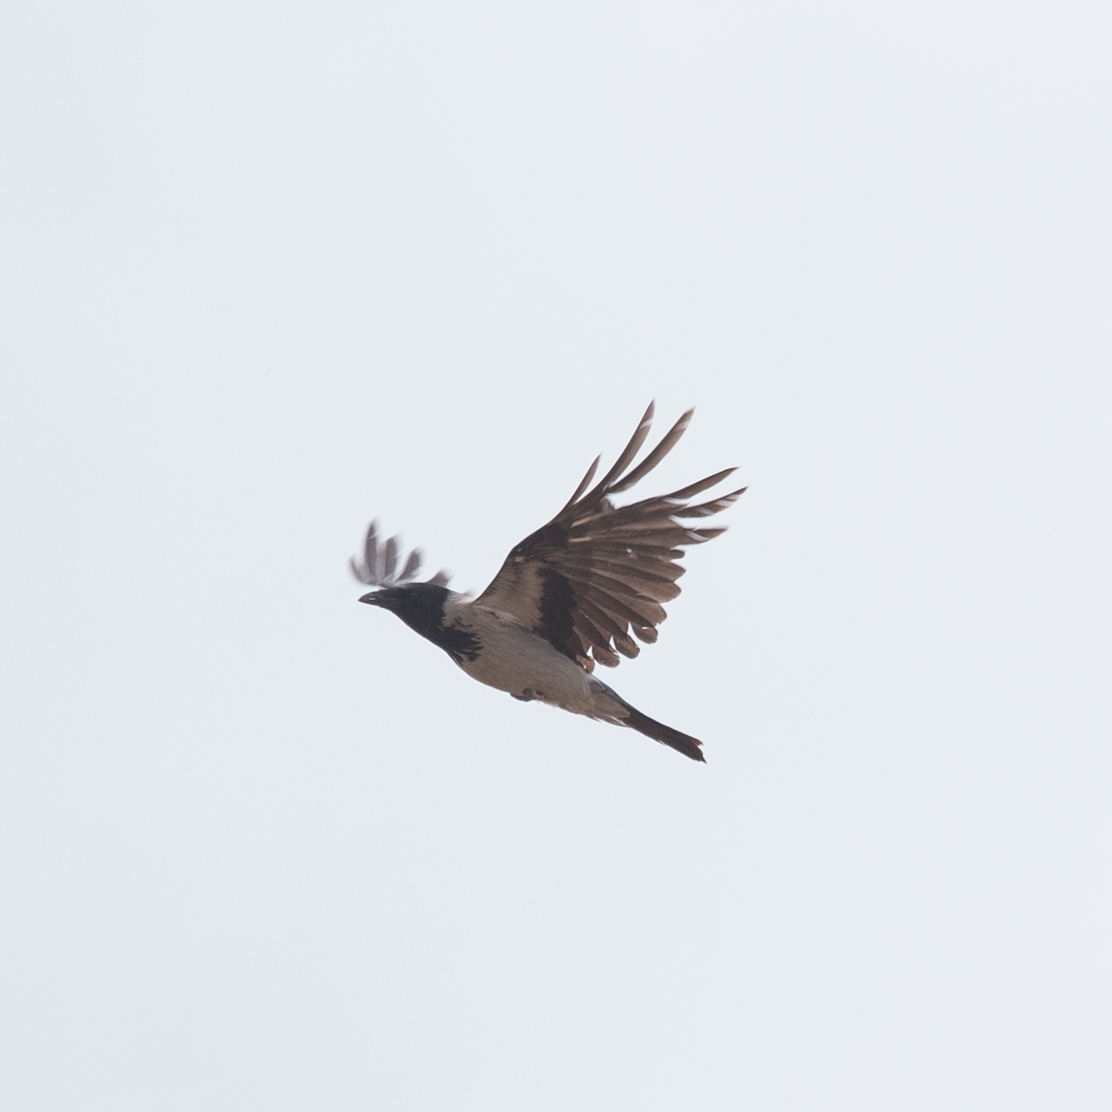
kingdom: Animalia
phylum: Chordata
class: Aves
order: Passeriformes
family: Corvidae
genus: Corvus
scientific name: Corvus cornix
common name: Hooded crow
